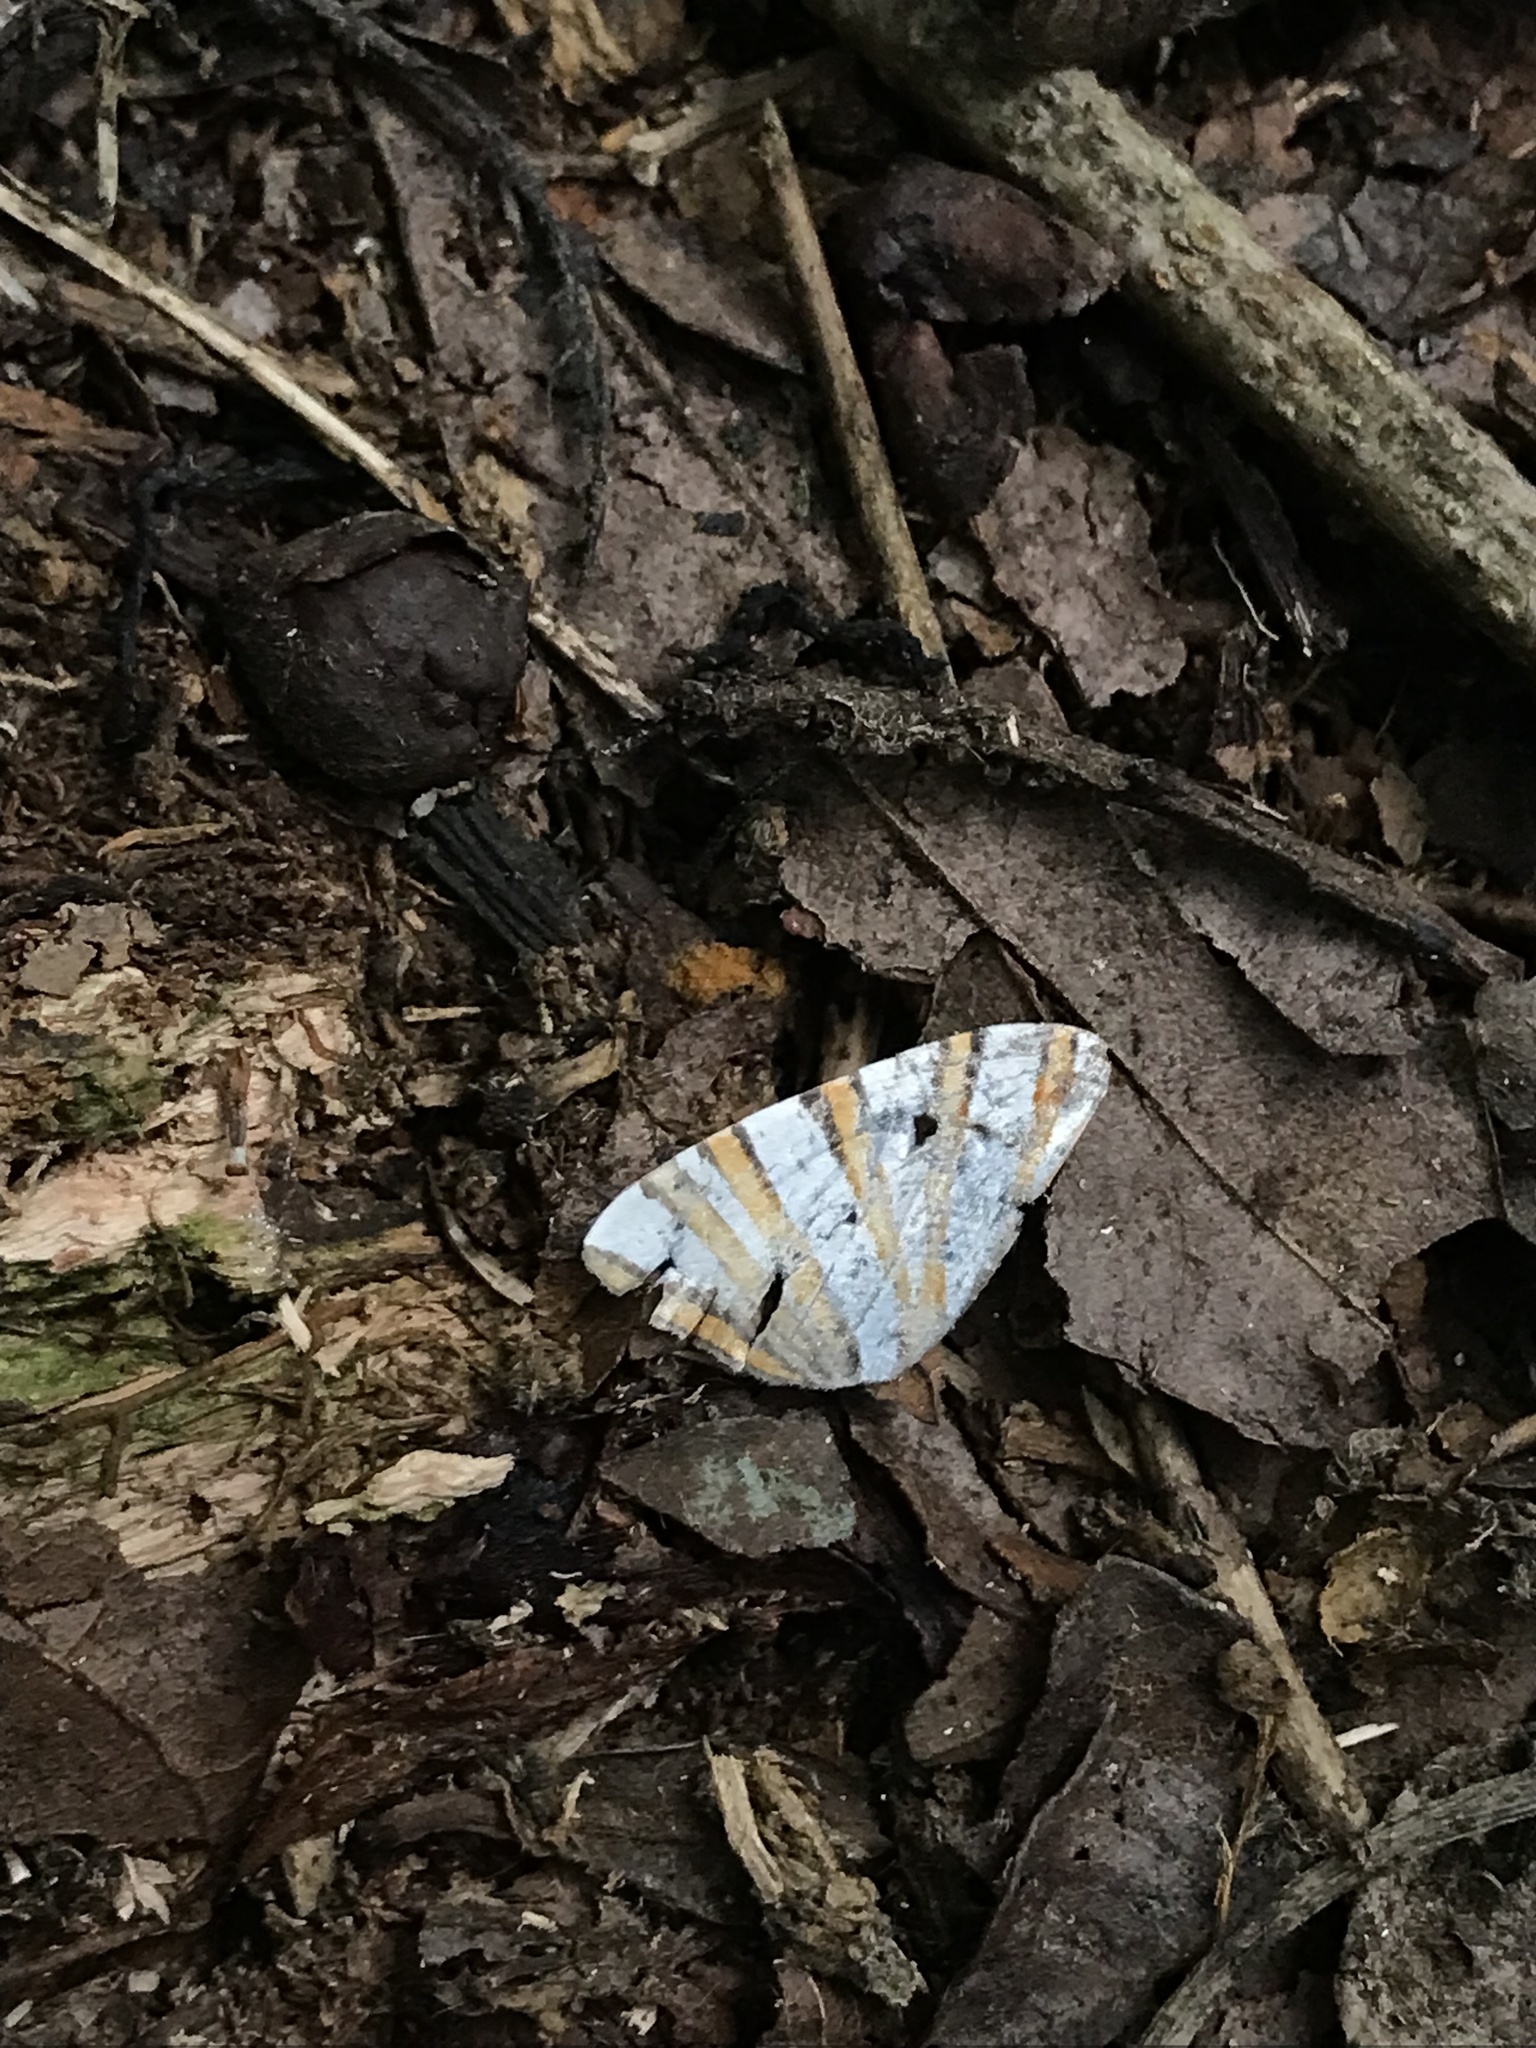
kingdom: Animalia
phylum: Arthropoda
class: Insecta
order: Lepidoptera
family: Geometridae
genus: Pityeja
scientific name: Pityeja histrionaria
